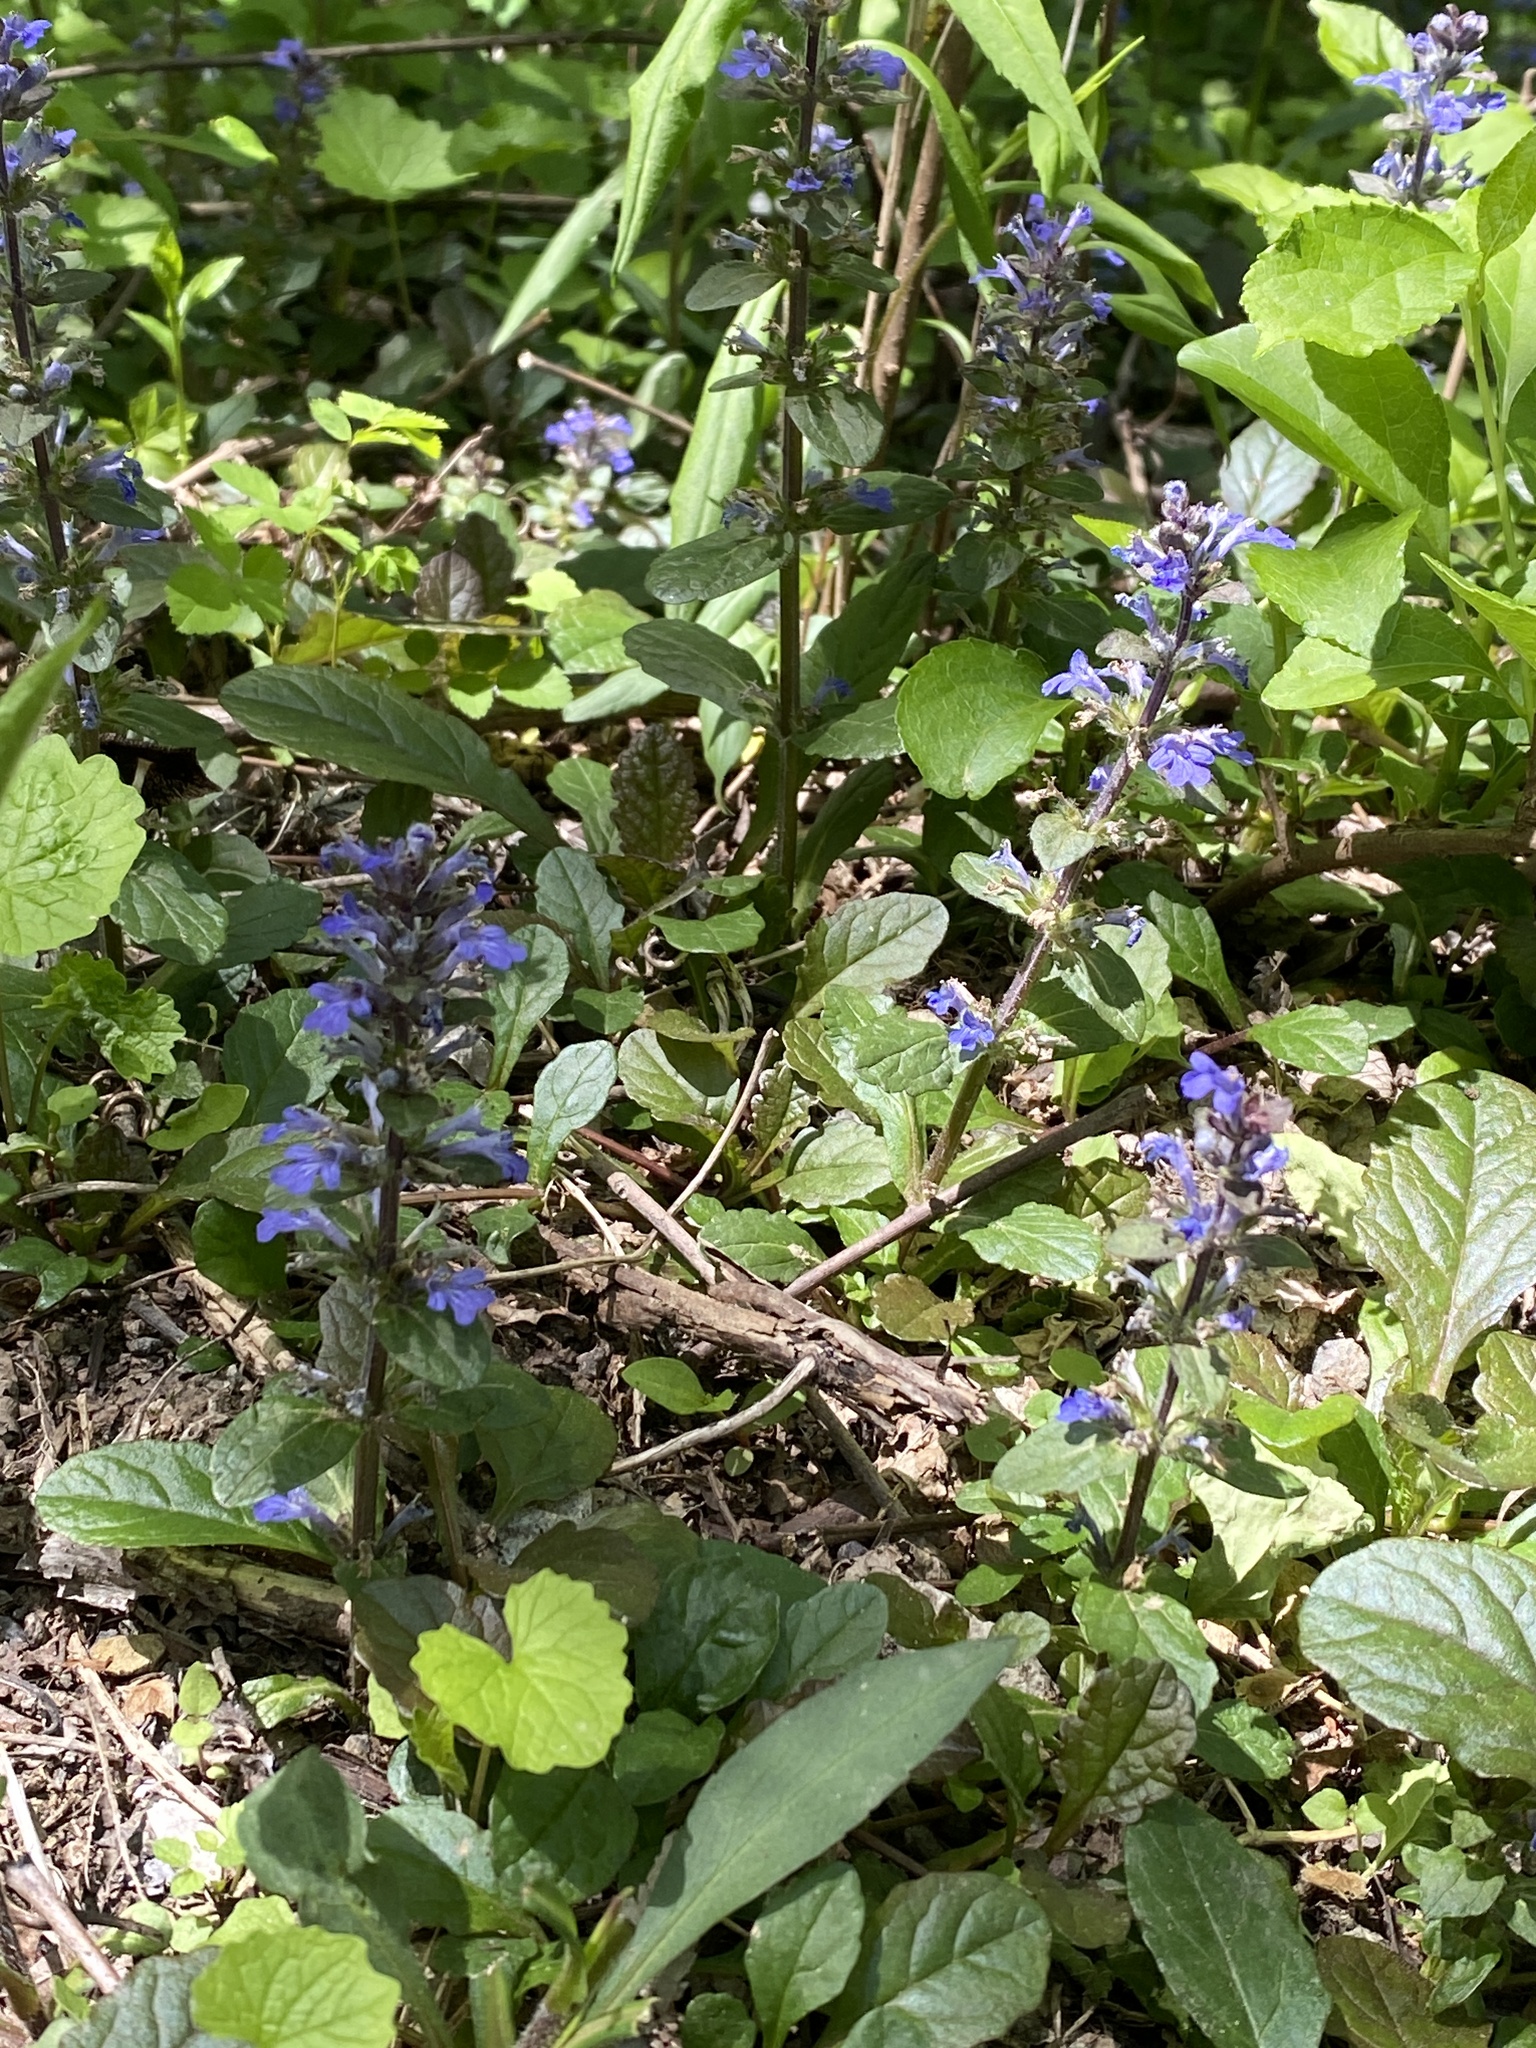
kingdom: Plantae
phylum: Tracheophyta
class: Magnoliopsida
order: Lamiales
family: Lamiaceae
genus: Ajuga
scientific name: Ajuga reptans
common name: Bugle
